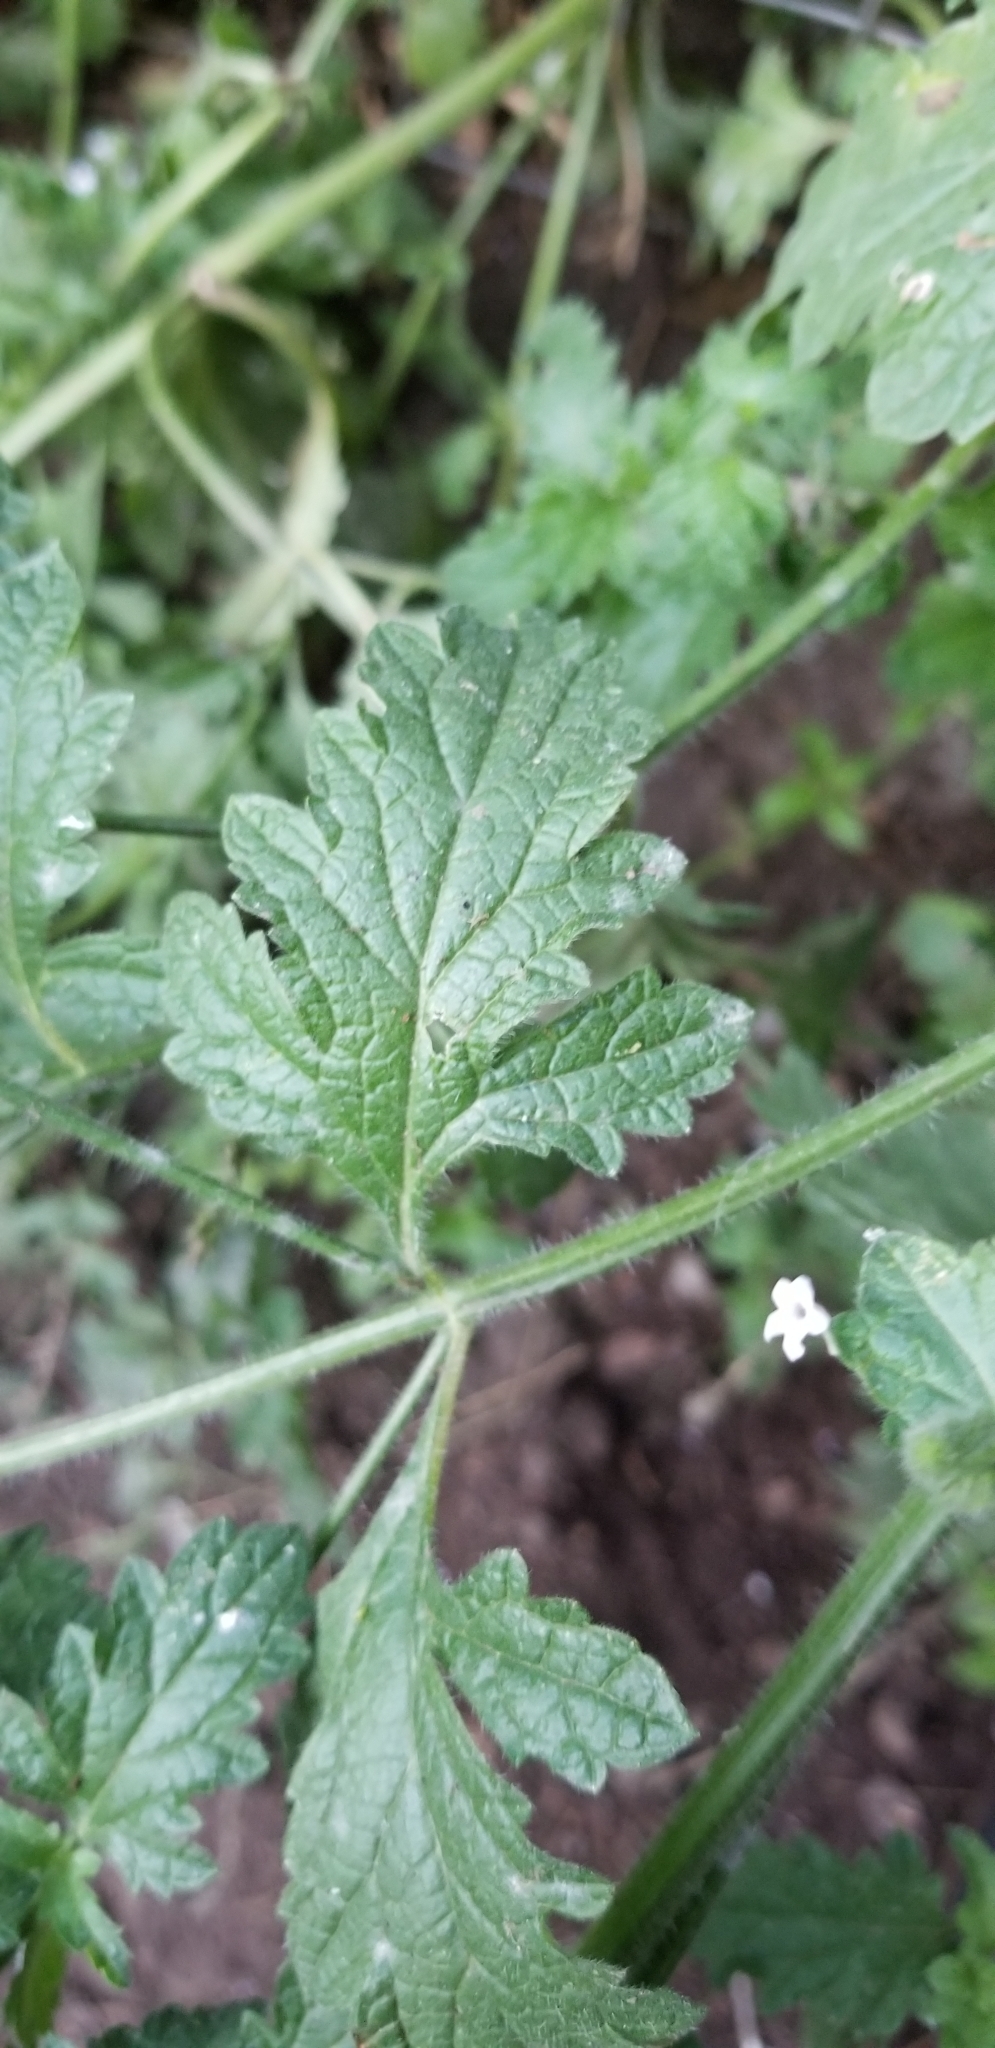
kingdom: Plantae
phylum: Tracheophyta
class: Magnoliopsida
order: Lamiales
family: Verbenaceae
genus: Verbena
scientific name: Verbena lasiostachys
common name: Vervain
